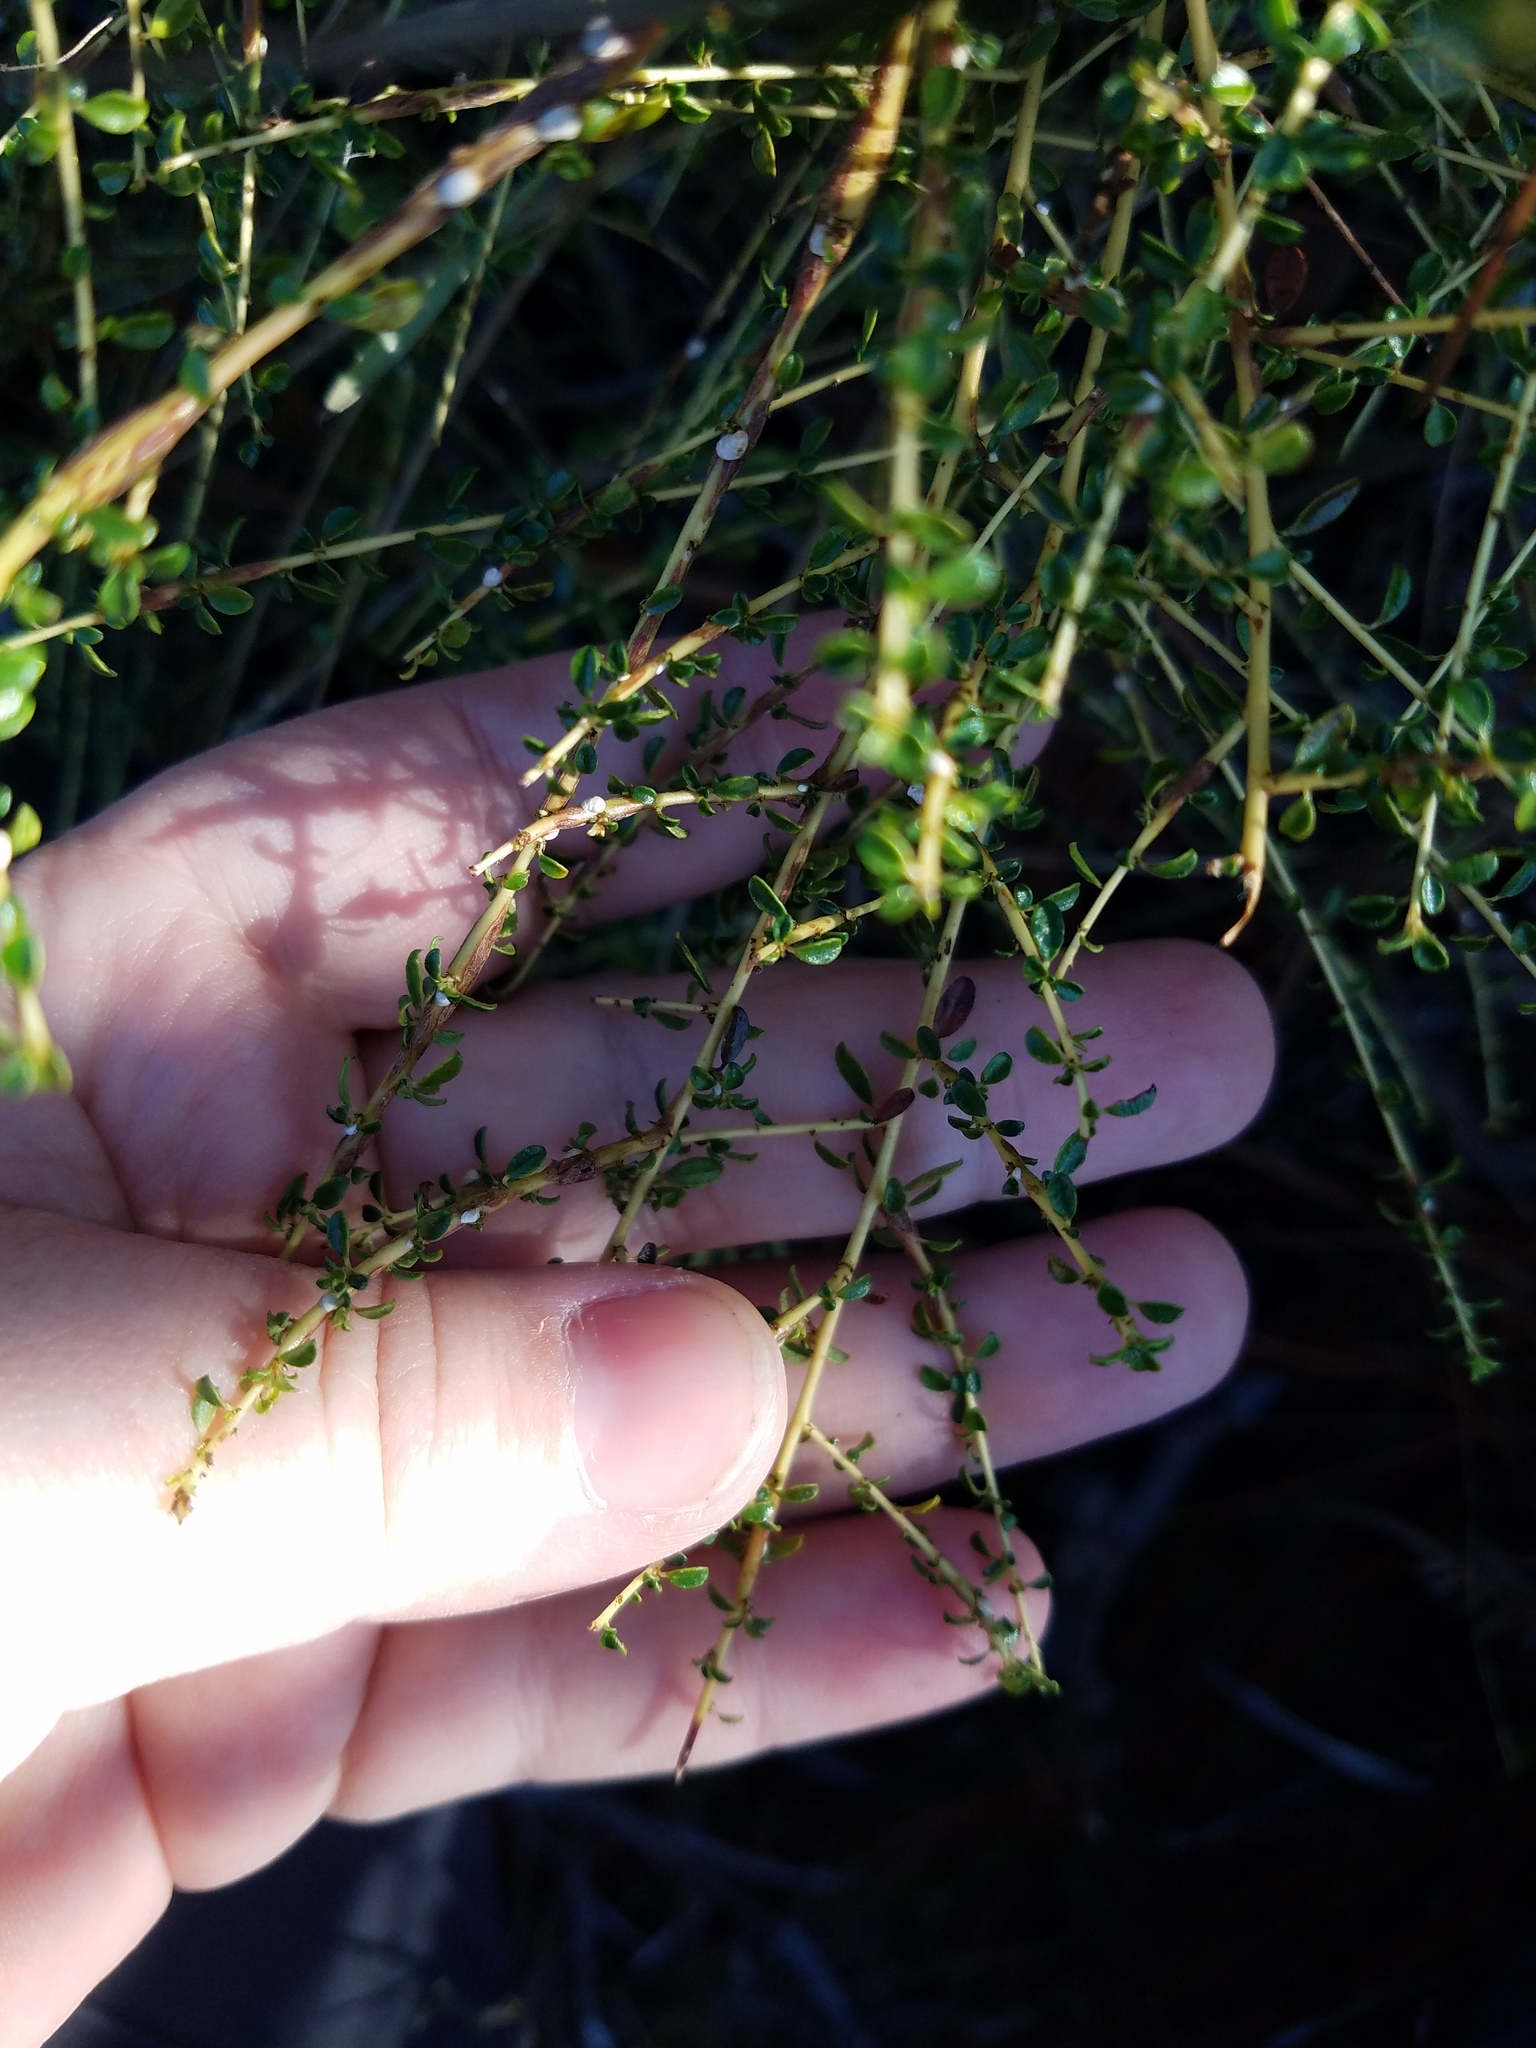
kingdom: Plantae
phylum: Tracheophyta
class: Magnoliopsida
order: Rosales
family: Rhamnaceae
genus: Ceanothus
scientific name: Ceanothus microphyllus
